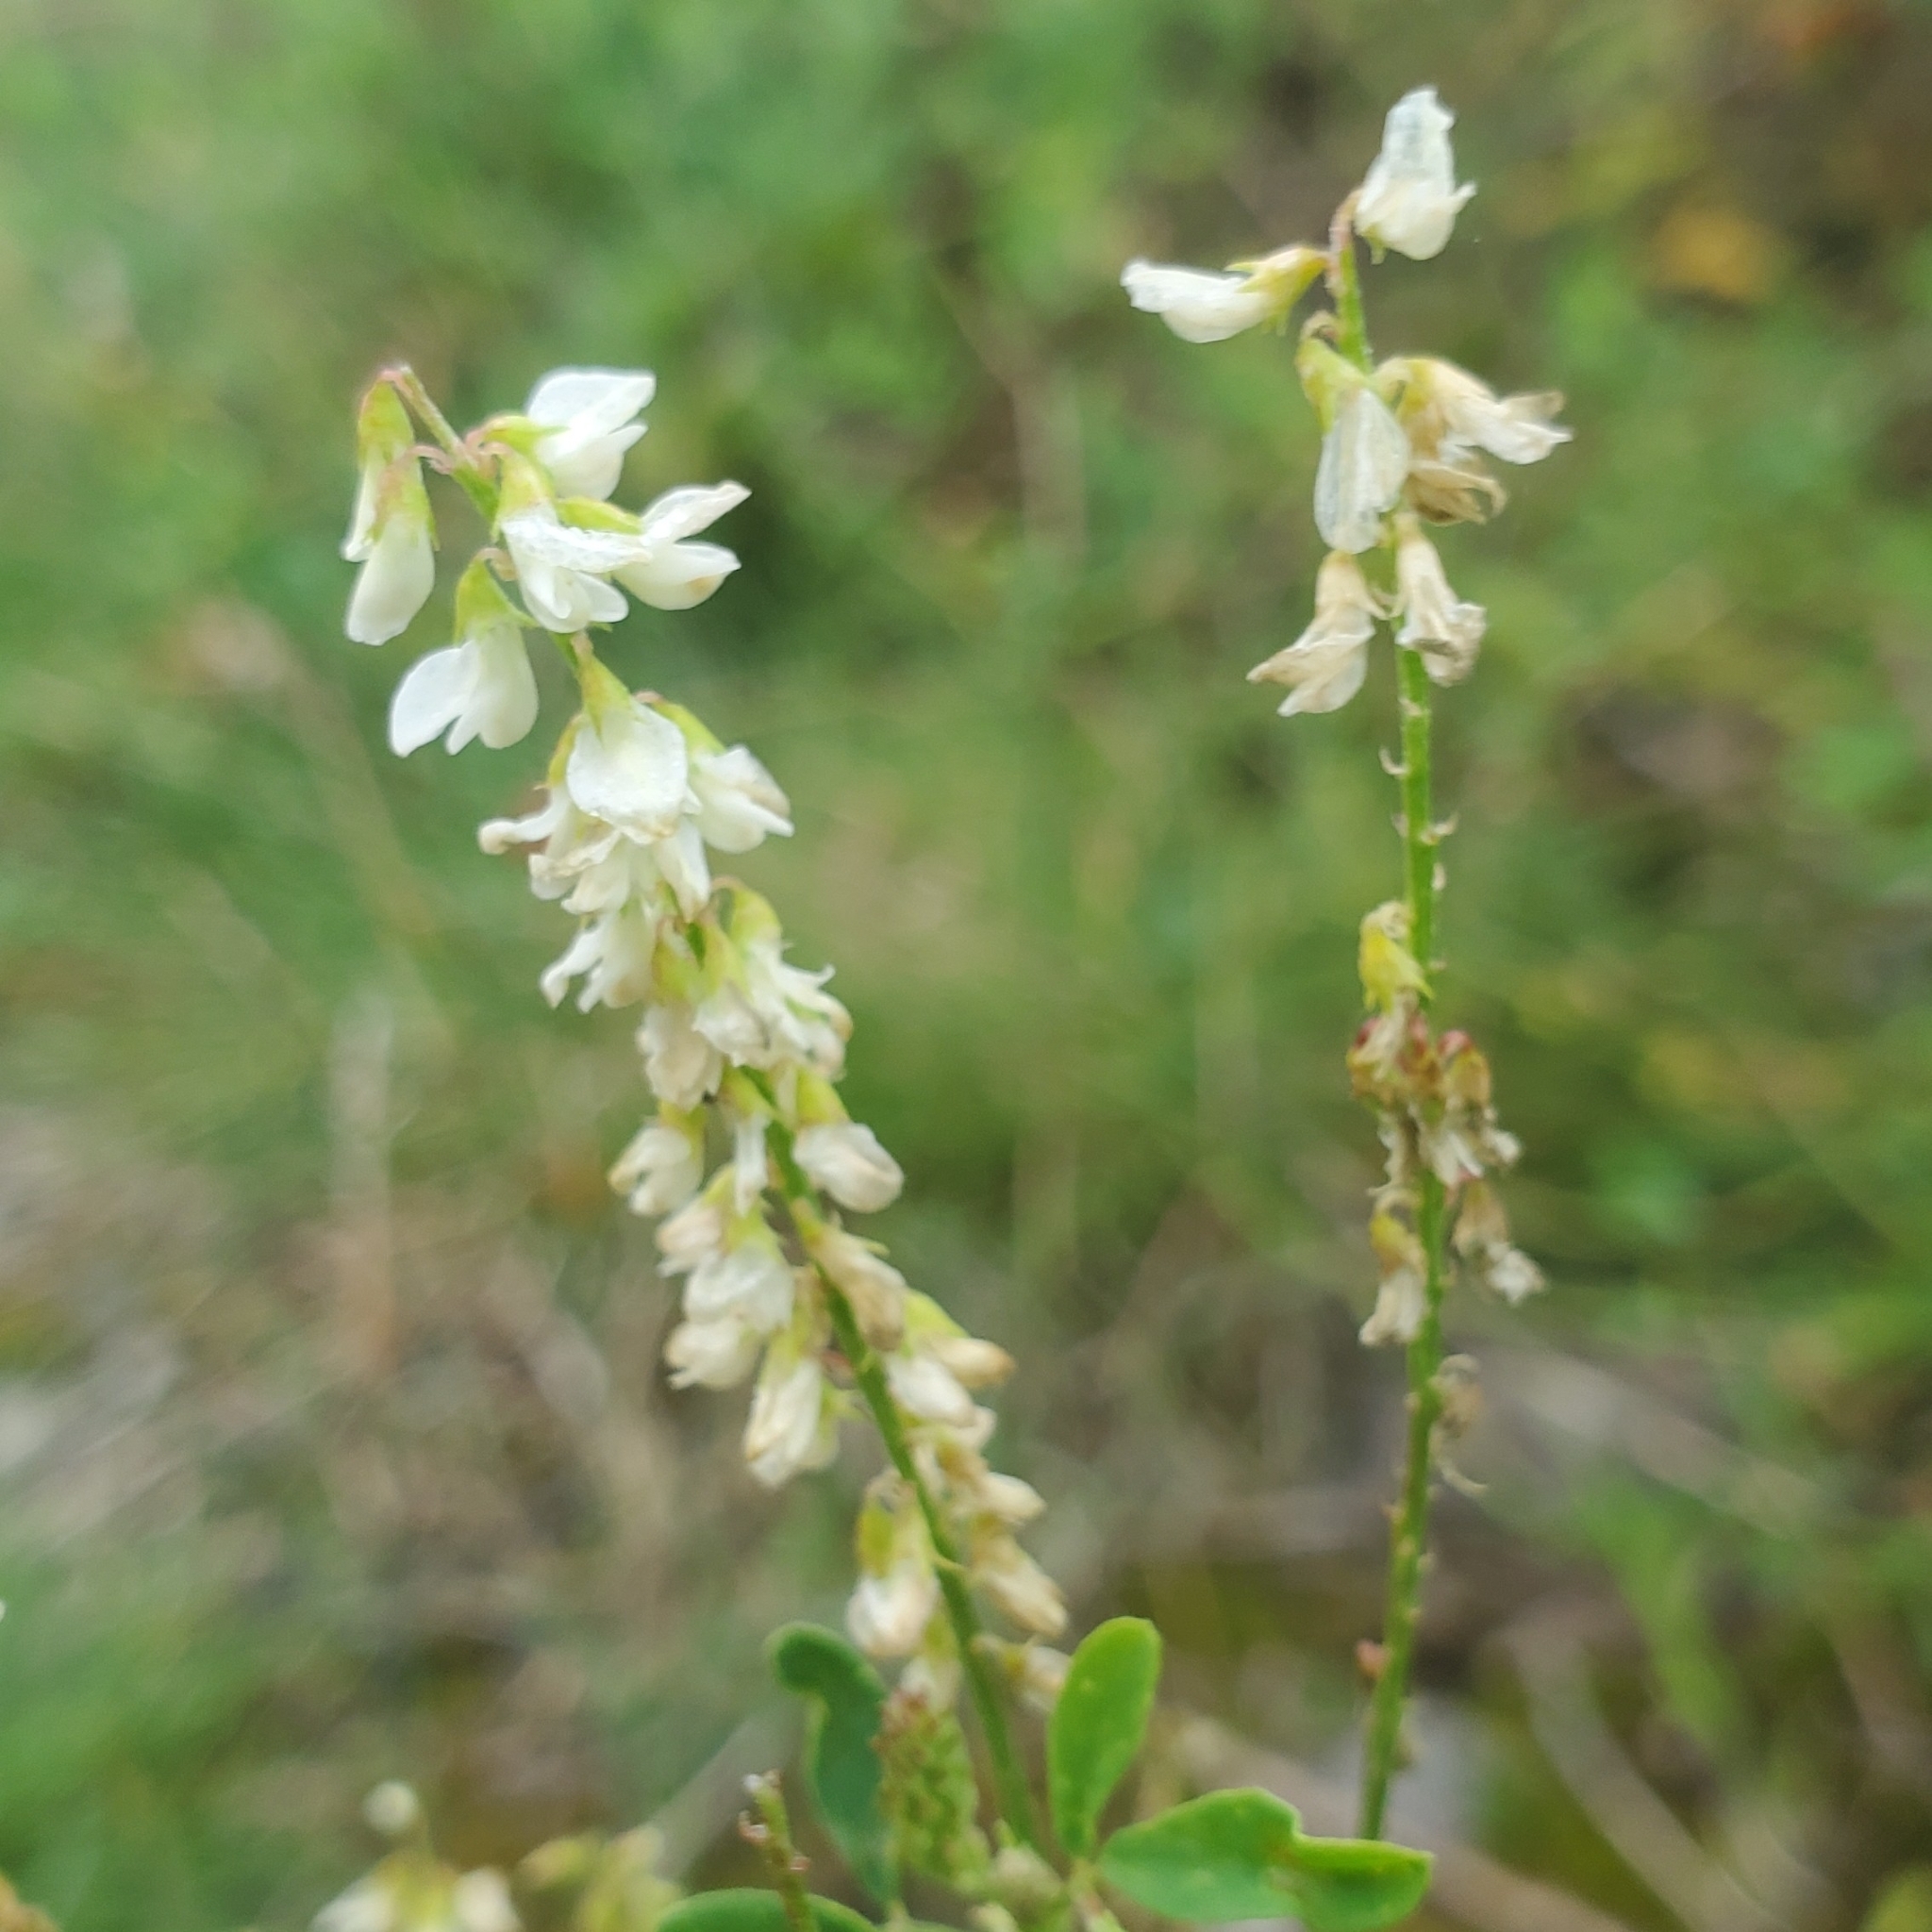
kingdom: Plantae
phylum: Tracheophyta
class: Magnoliopsida
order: Fabales
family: Fabaceae
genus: Melilotus
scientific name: Melilotus albus
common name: White melilot
